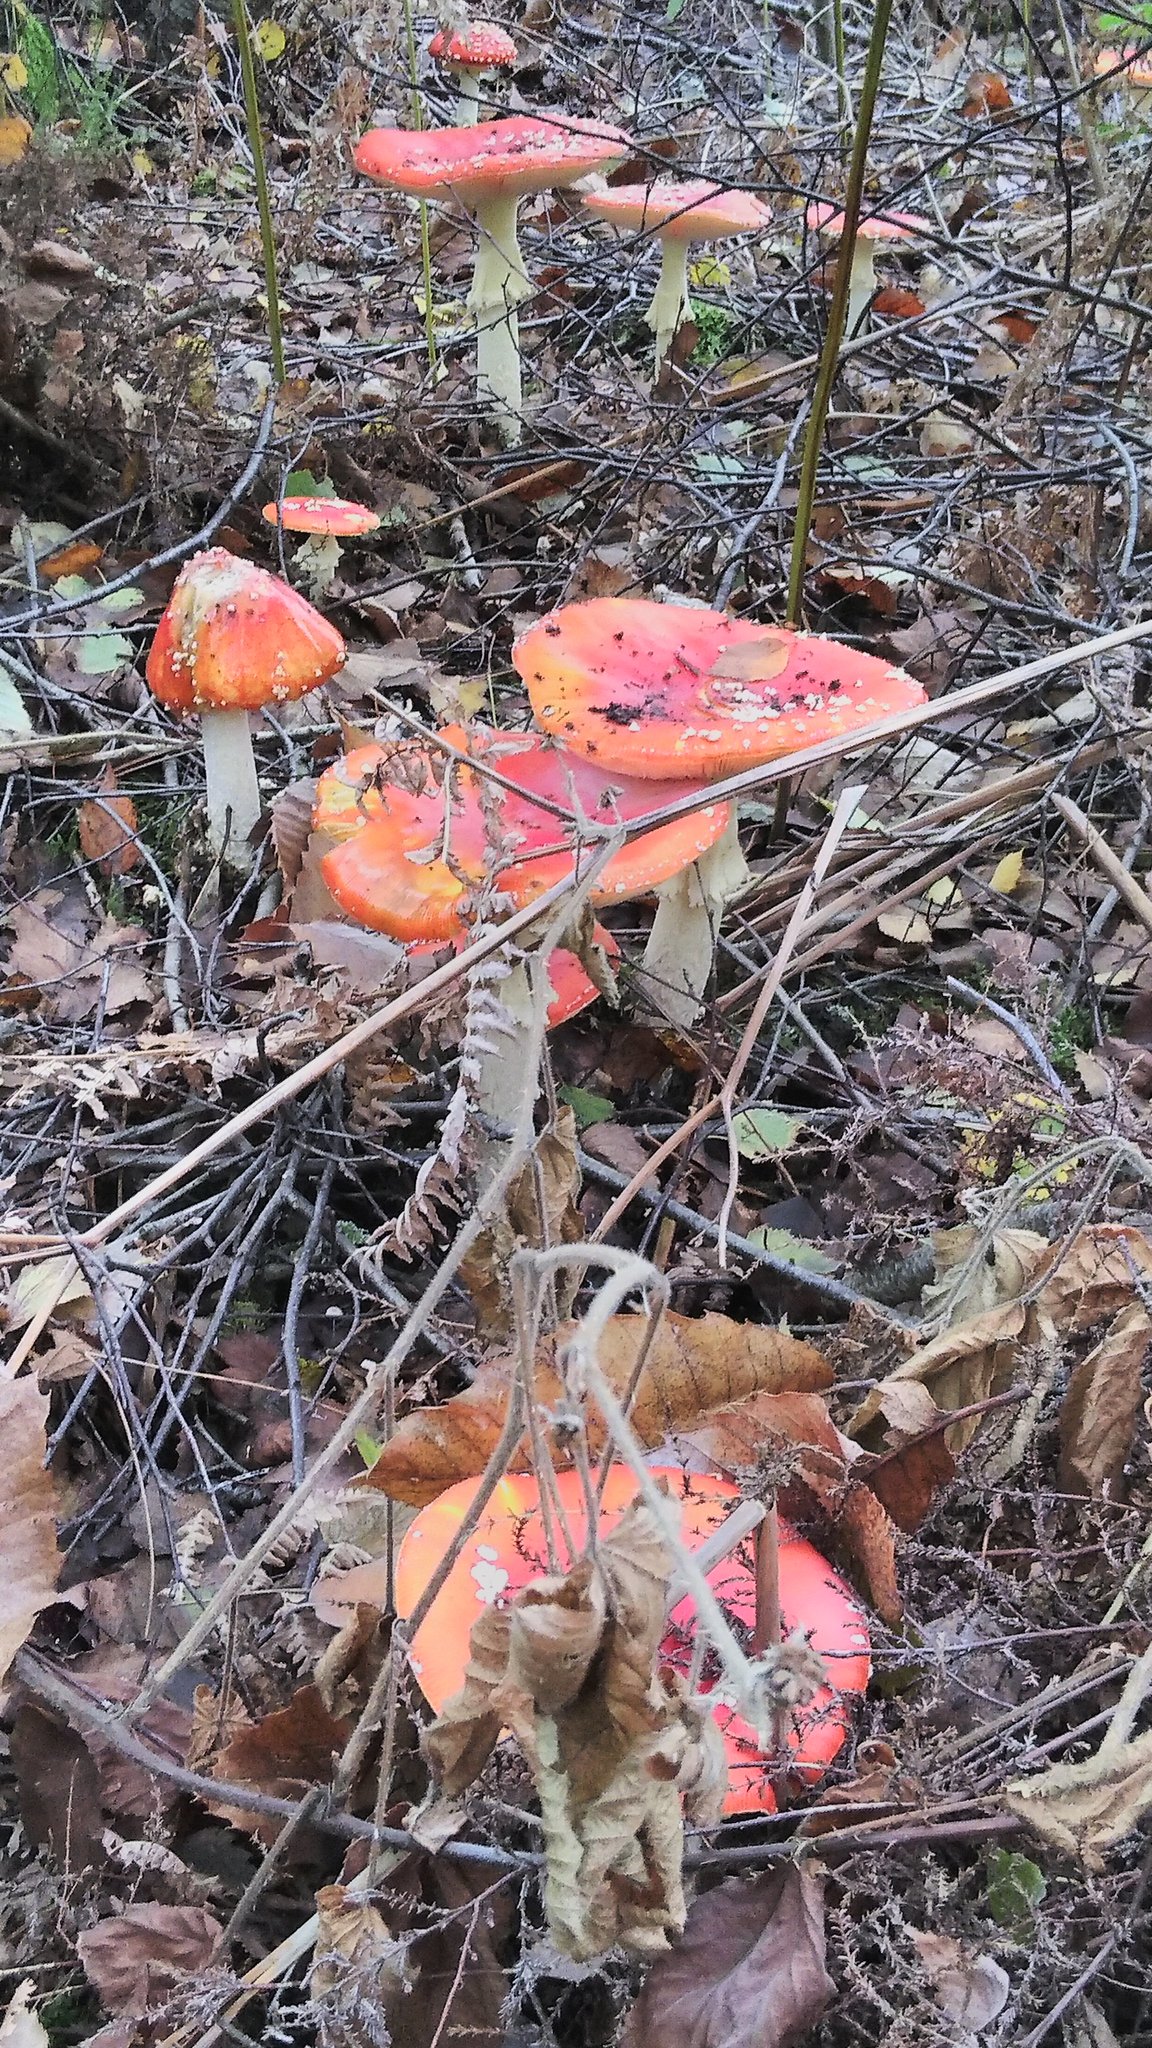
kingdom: Fungi
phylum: Basidiomycota
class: Agaricomycetes
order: Agaricales
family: Amanitaceae
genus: Amanita
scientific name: Amanita muscaria
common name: Fly agaric
